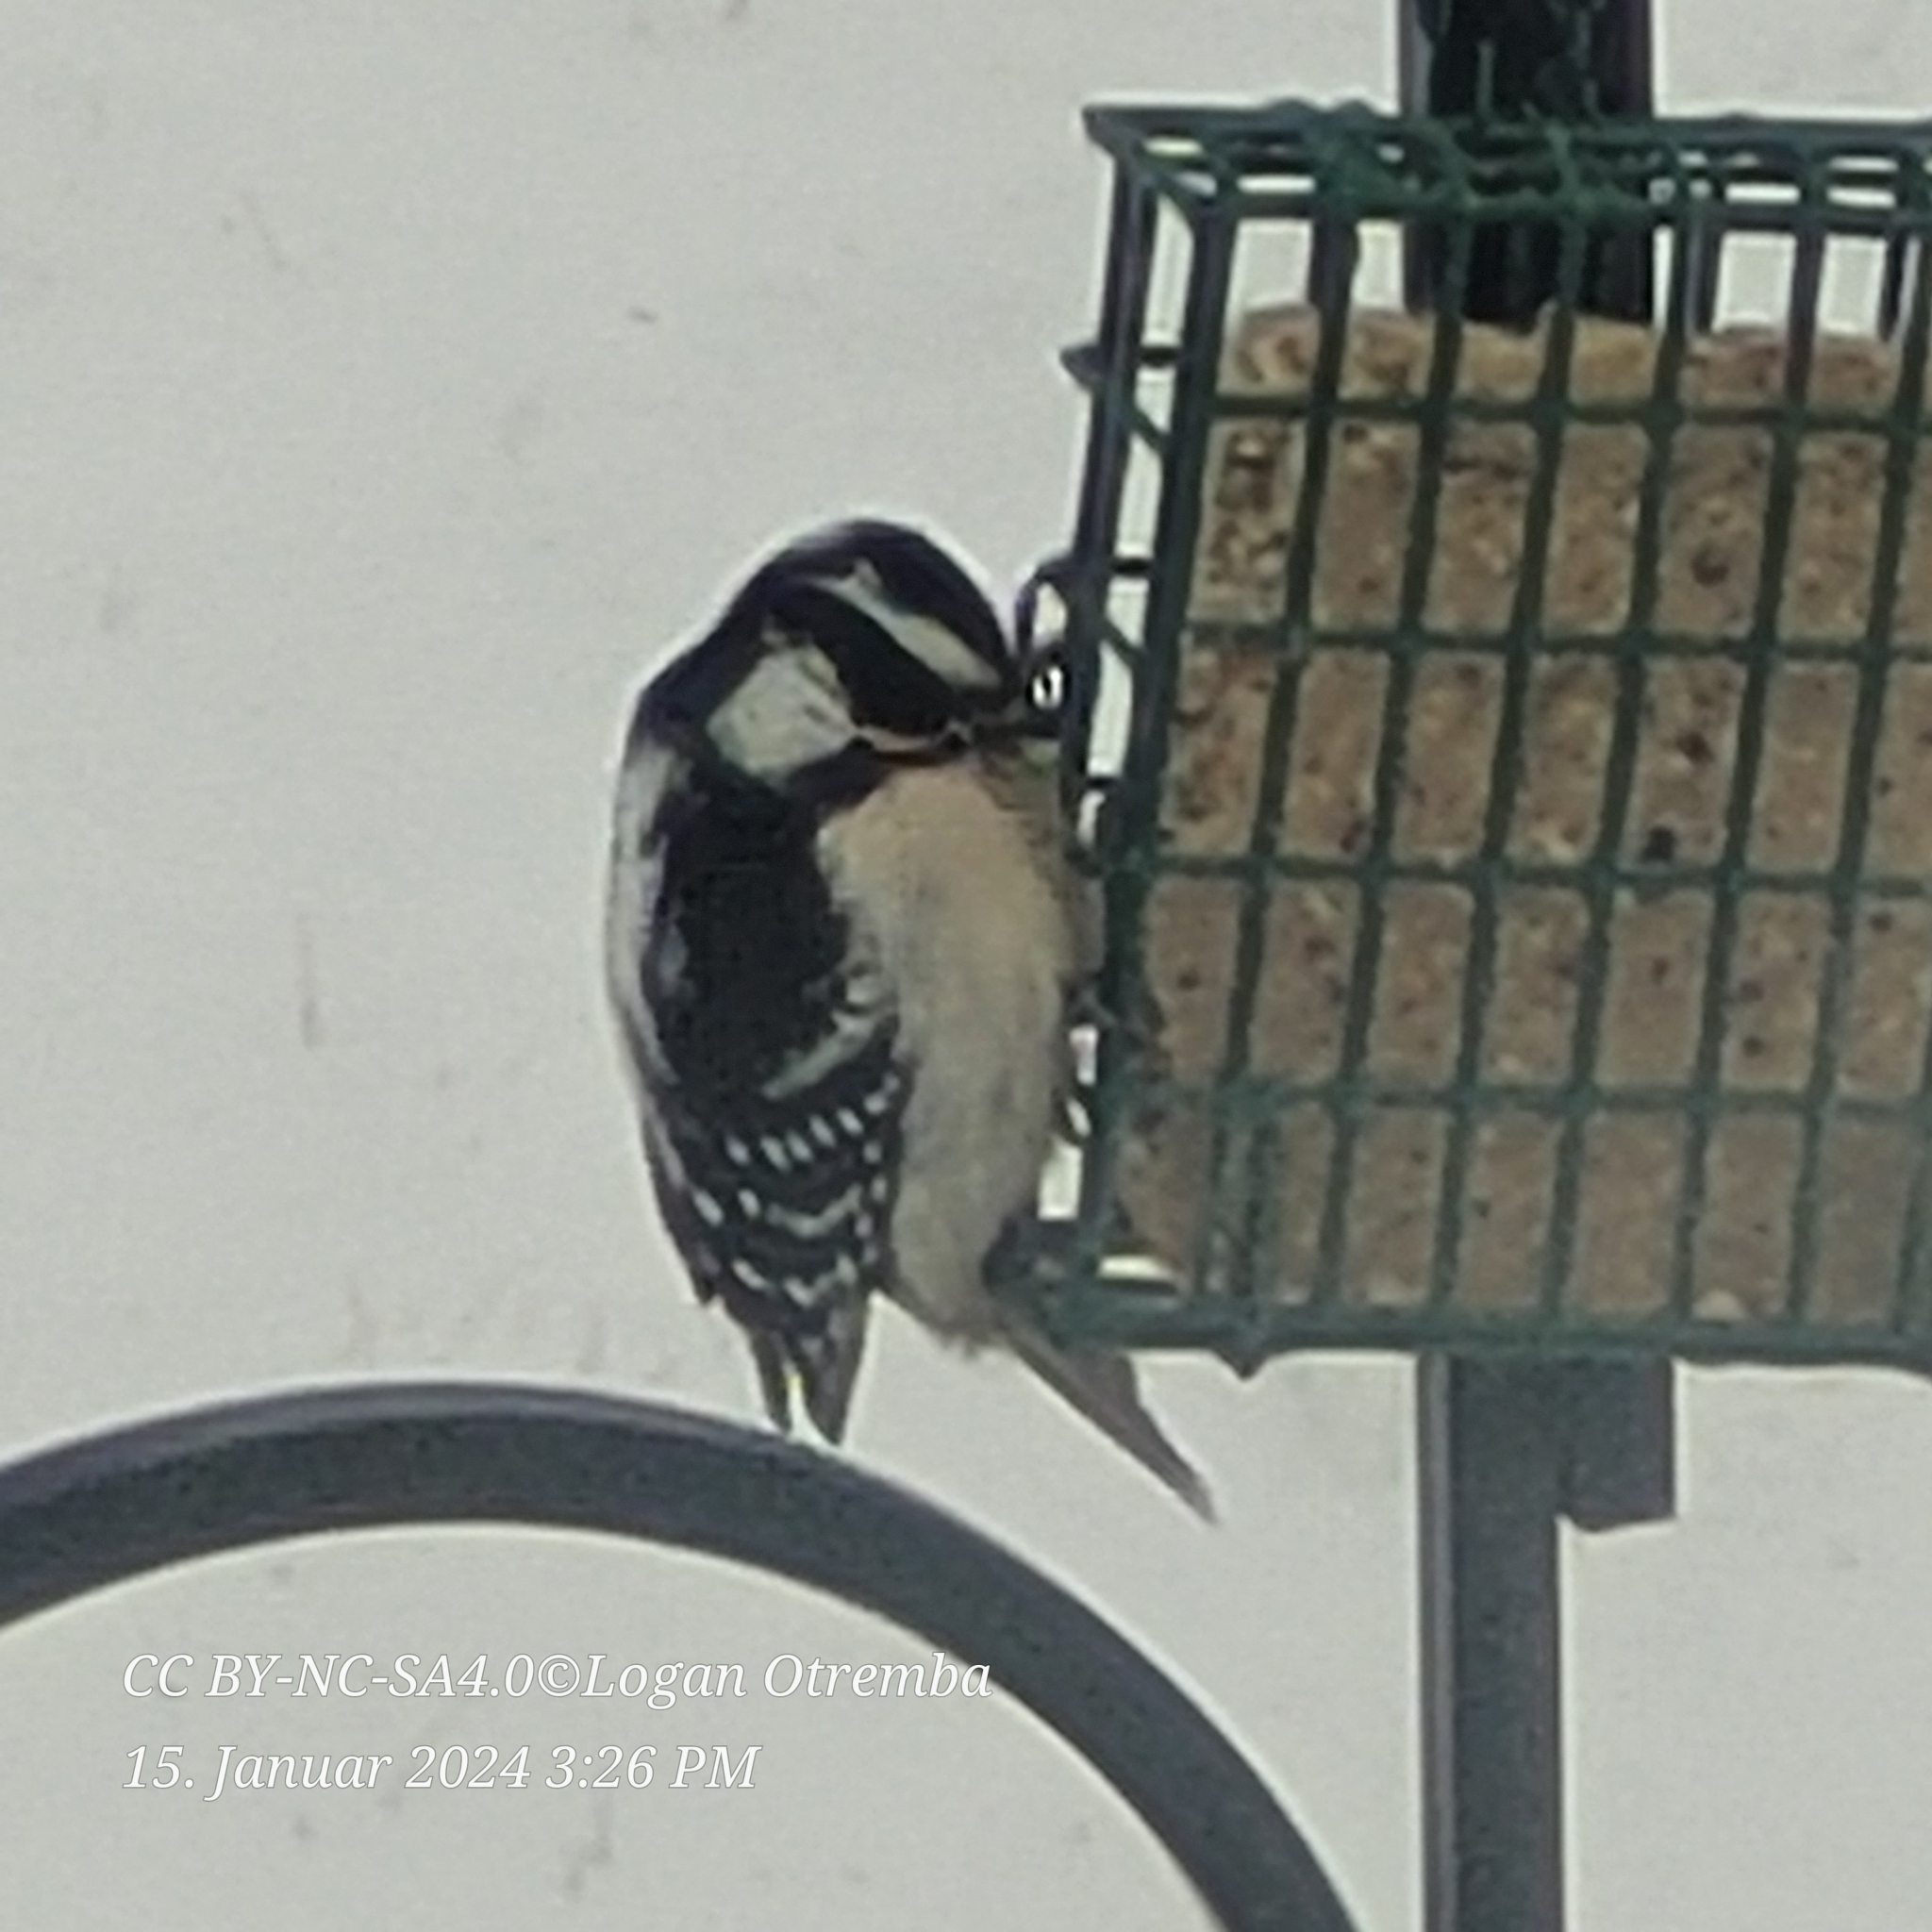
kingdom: Animalia
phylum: Chordata
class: Aves
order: Piciformes
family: Picidae
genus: Dryobates
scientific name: Dryobates pubescens
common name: Downy woodpecker
